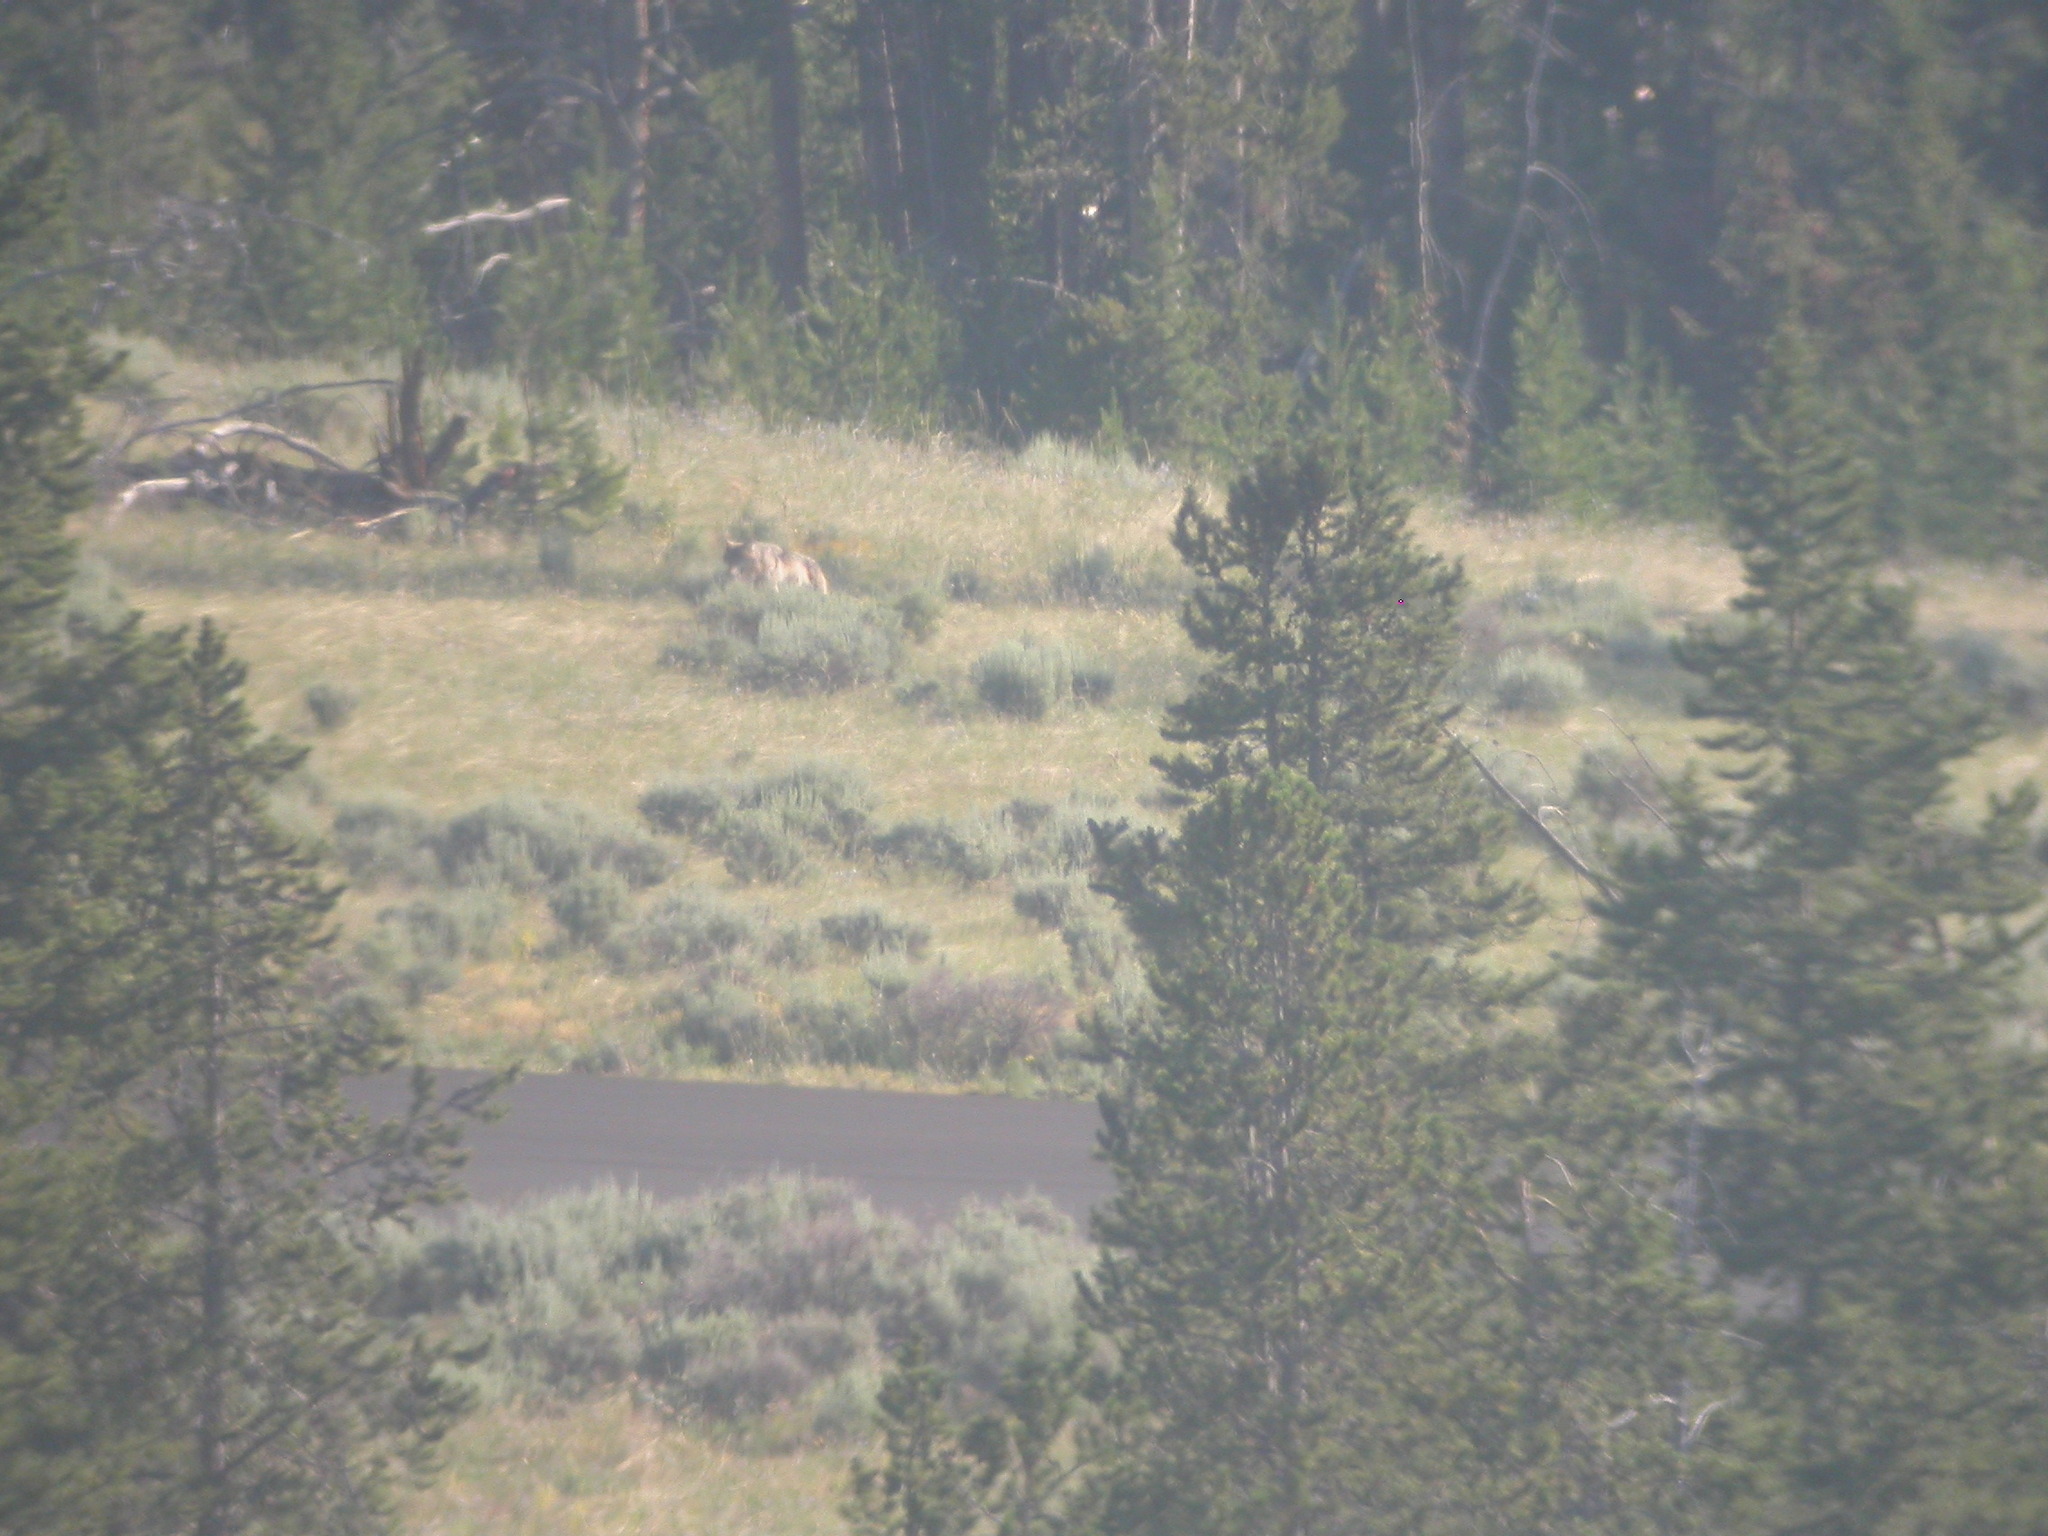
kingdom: Animalia
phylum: Chordata
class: Mammalia
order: Carnivora
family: Canidae
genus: Canis
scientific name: Canis lupus
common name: Gray wolf
